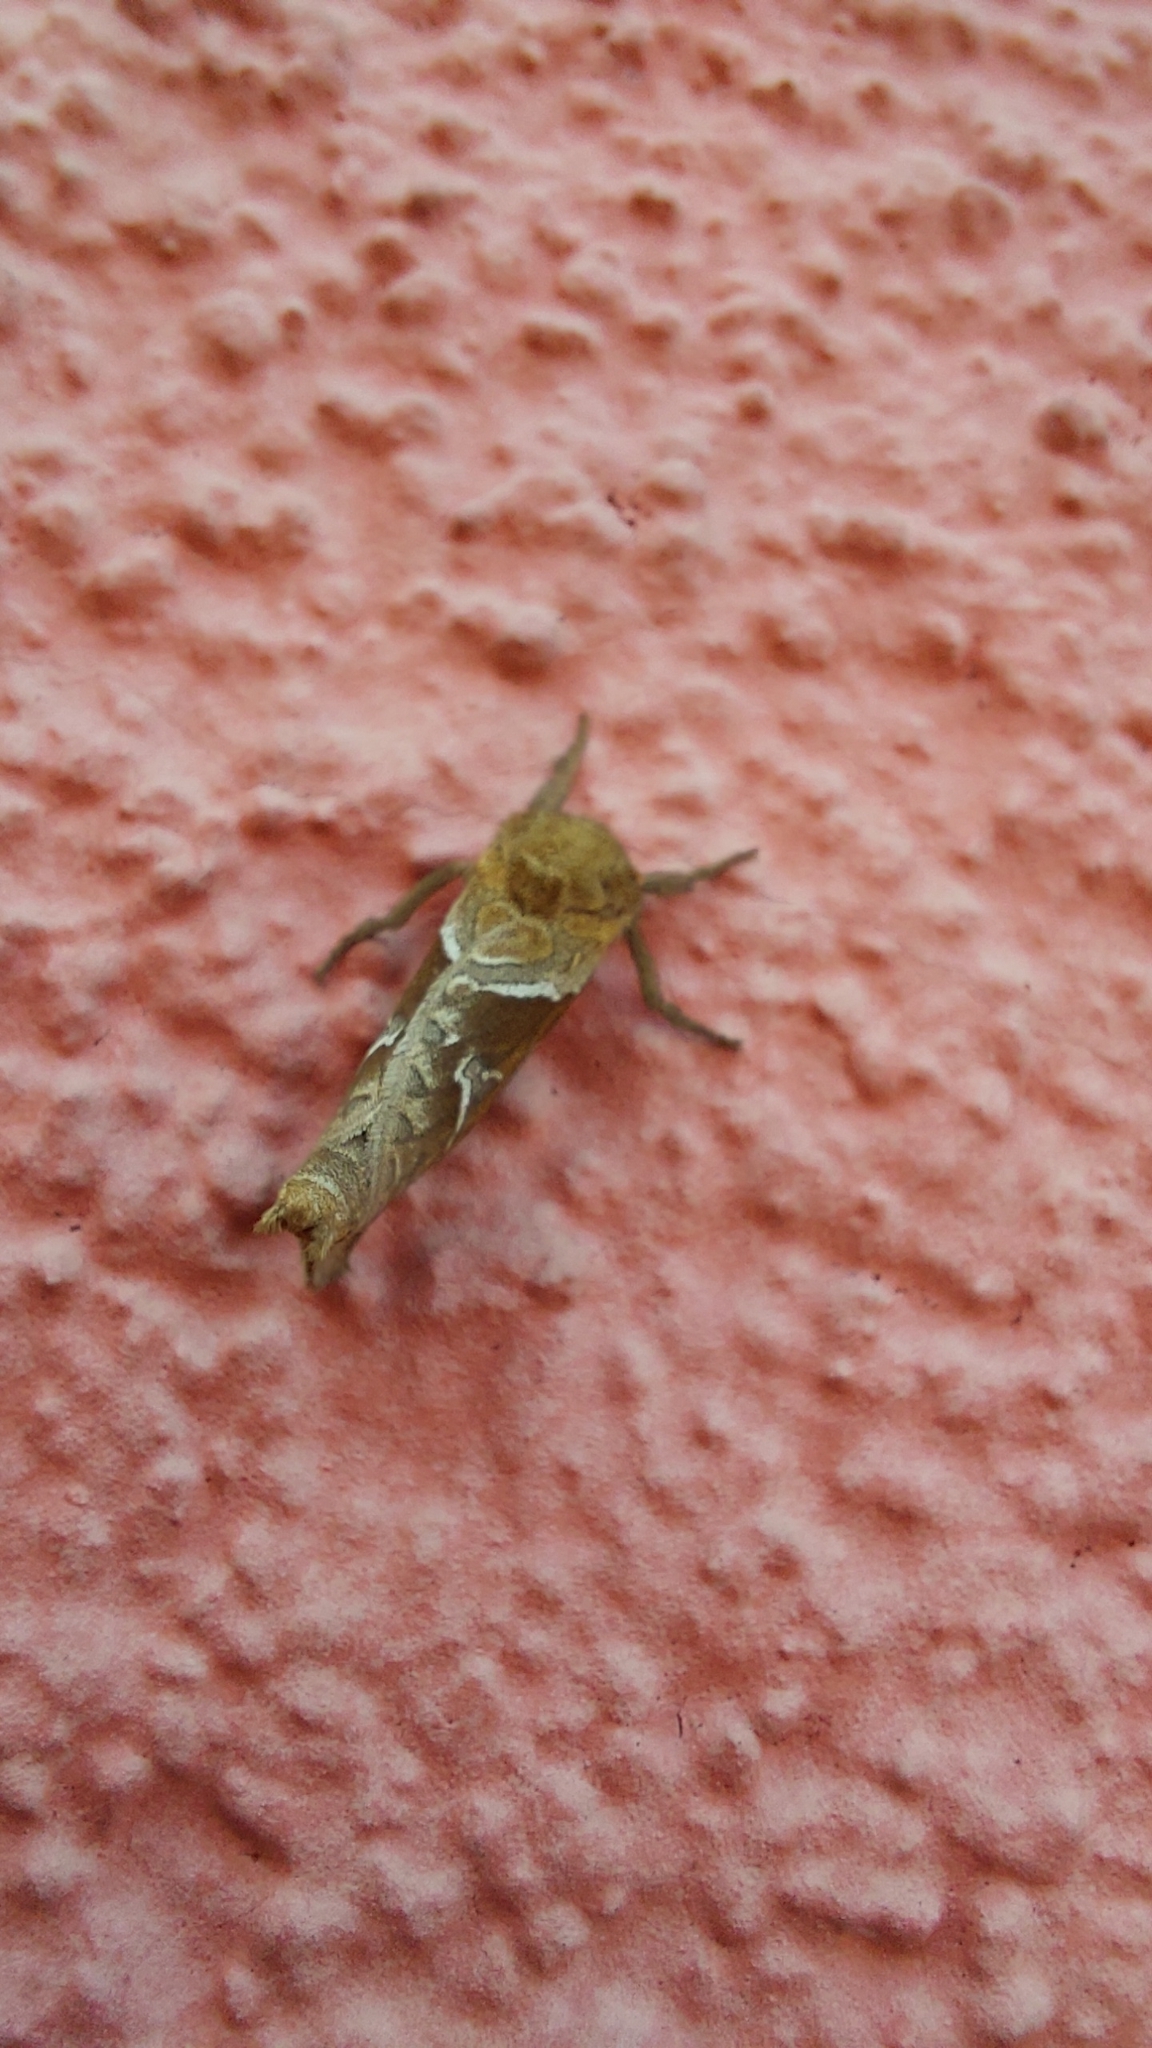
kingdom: Animalia
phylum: Arthropoda
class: Insecta
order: Lepidoptera
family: Hepialidae
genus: Triodia
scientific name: Triodia sylvina
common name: Orange swift
